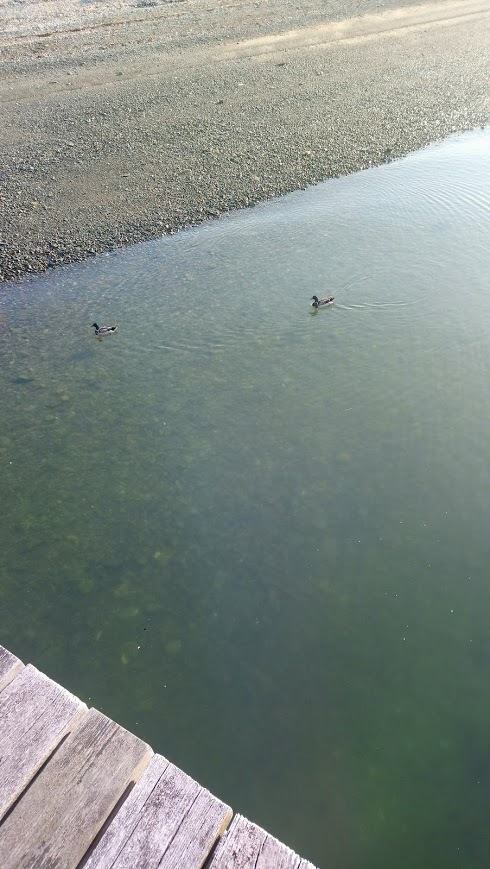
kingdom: Animalia
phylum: Chordata
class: Aves
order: Anseriformes
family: Anatidae
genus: Anas
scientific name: Anas platyrhynchos
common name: Mallard
